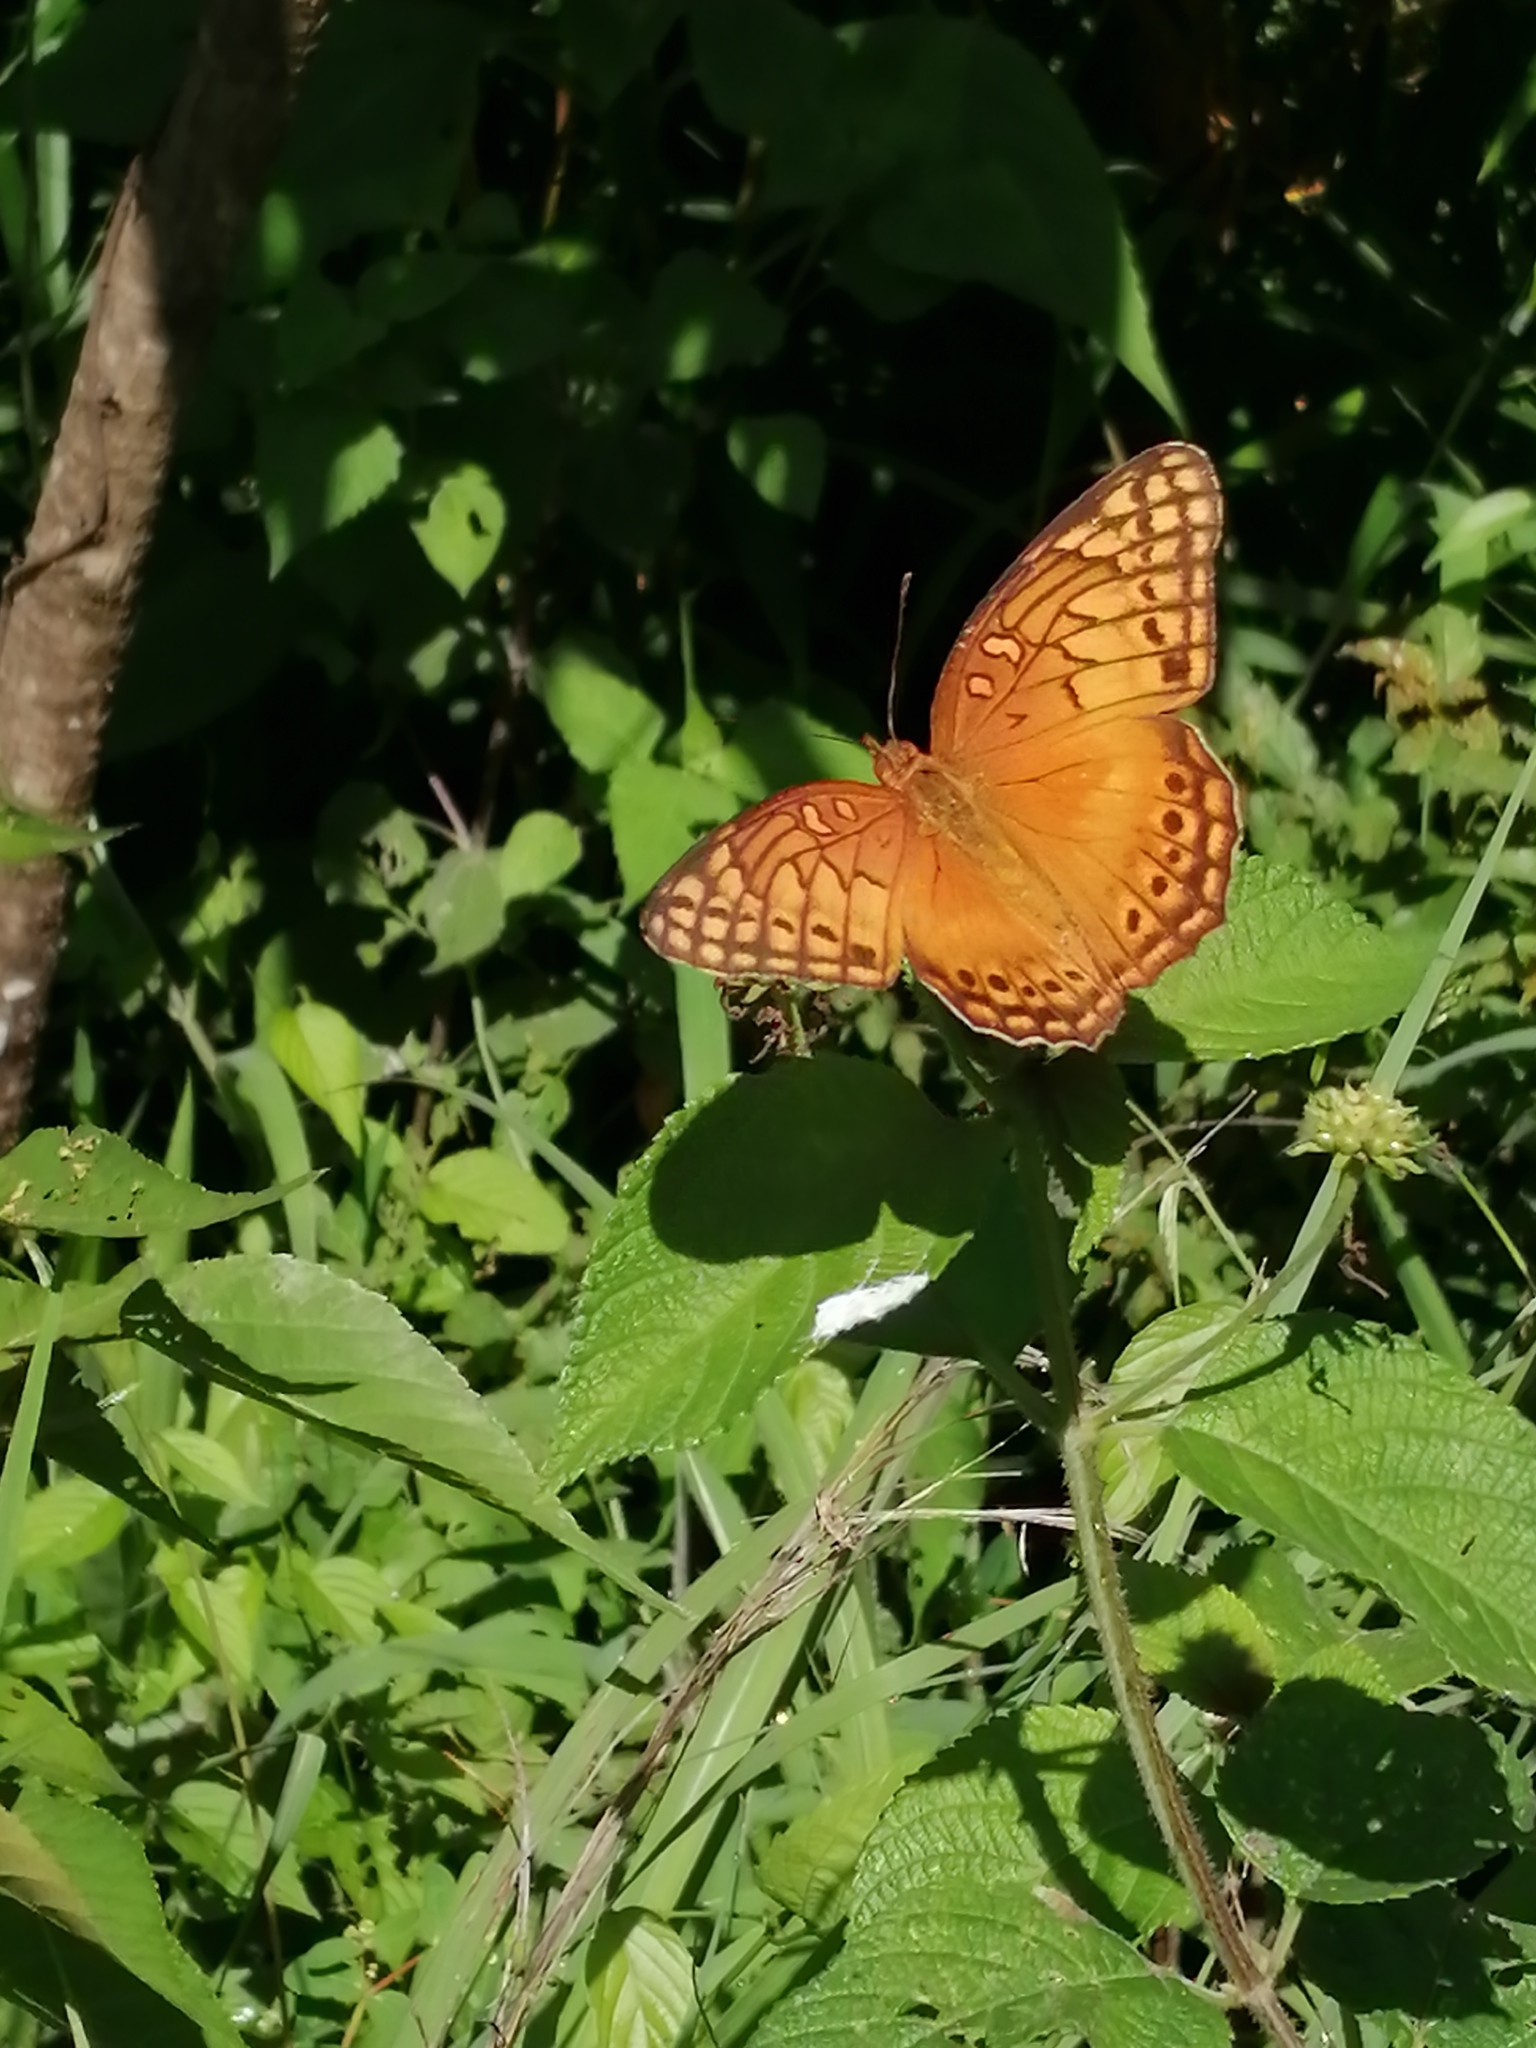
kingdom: Animalia
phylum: Arthropoda
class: Insecta
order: Lepidoptera
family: Nymphalidae
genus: Euptoieta
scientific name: Euptoieta hegesia
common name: Mexican fritillary
